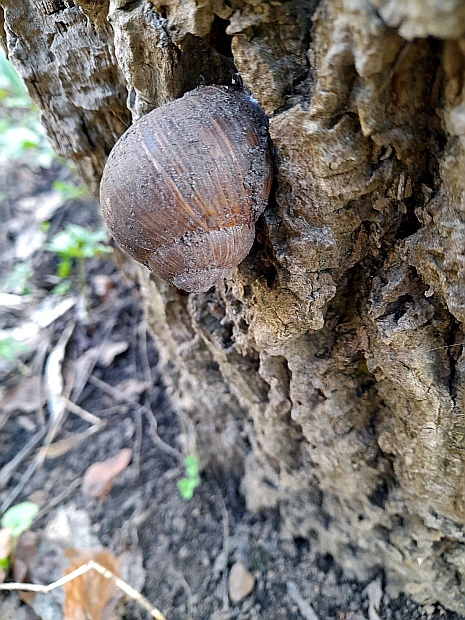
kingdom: Animalia
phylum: Mollusca
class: Gastropoda
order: Stylommatophora
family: Helicidae
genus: Helix
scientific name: Helix pomatia
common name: Roman snail
